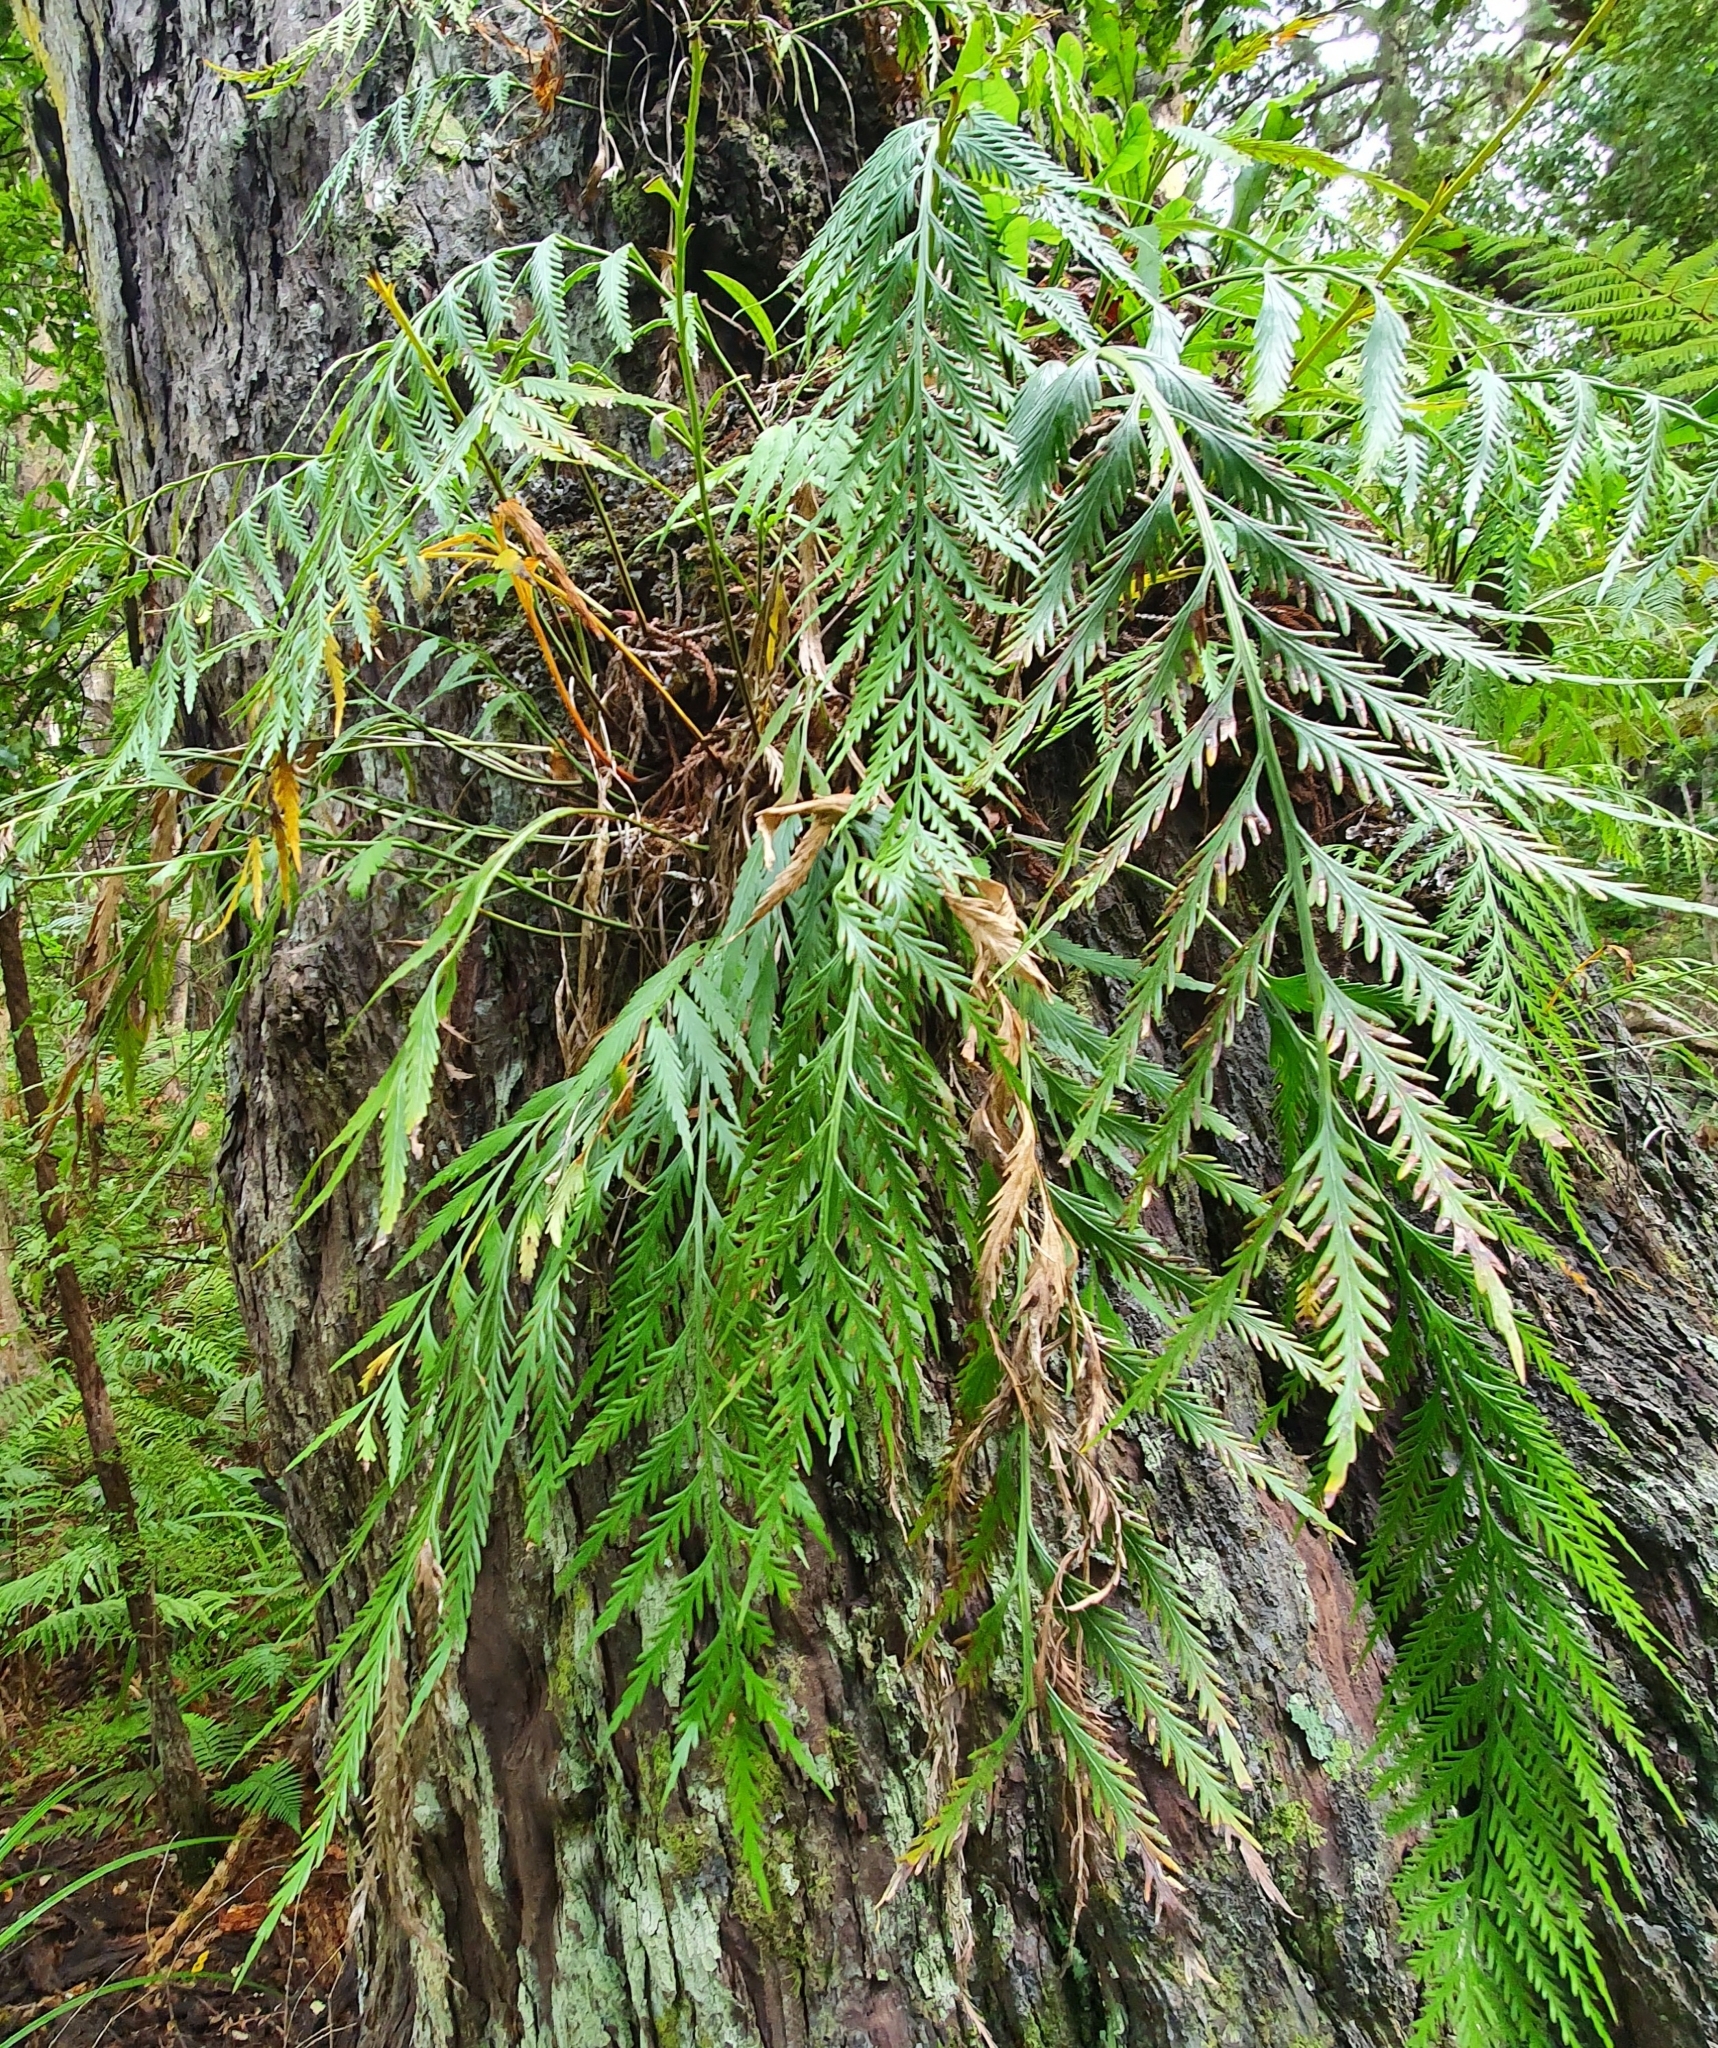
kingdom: Plantae
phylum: Tracheophyta
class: Polypodiopsida
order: Polypodiales
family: Aspleniaceae
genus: Asplenium
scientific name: Asplenium flaccidum
